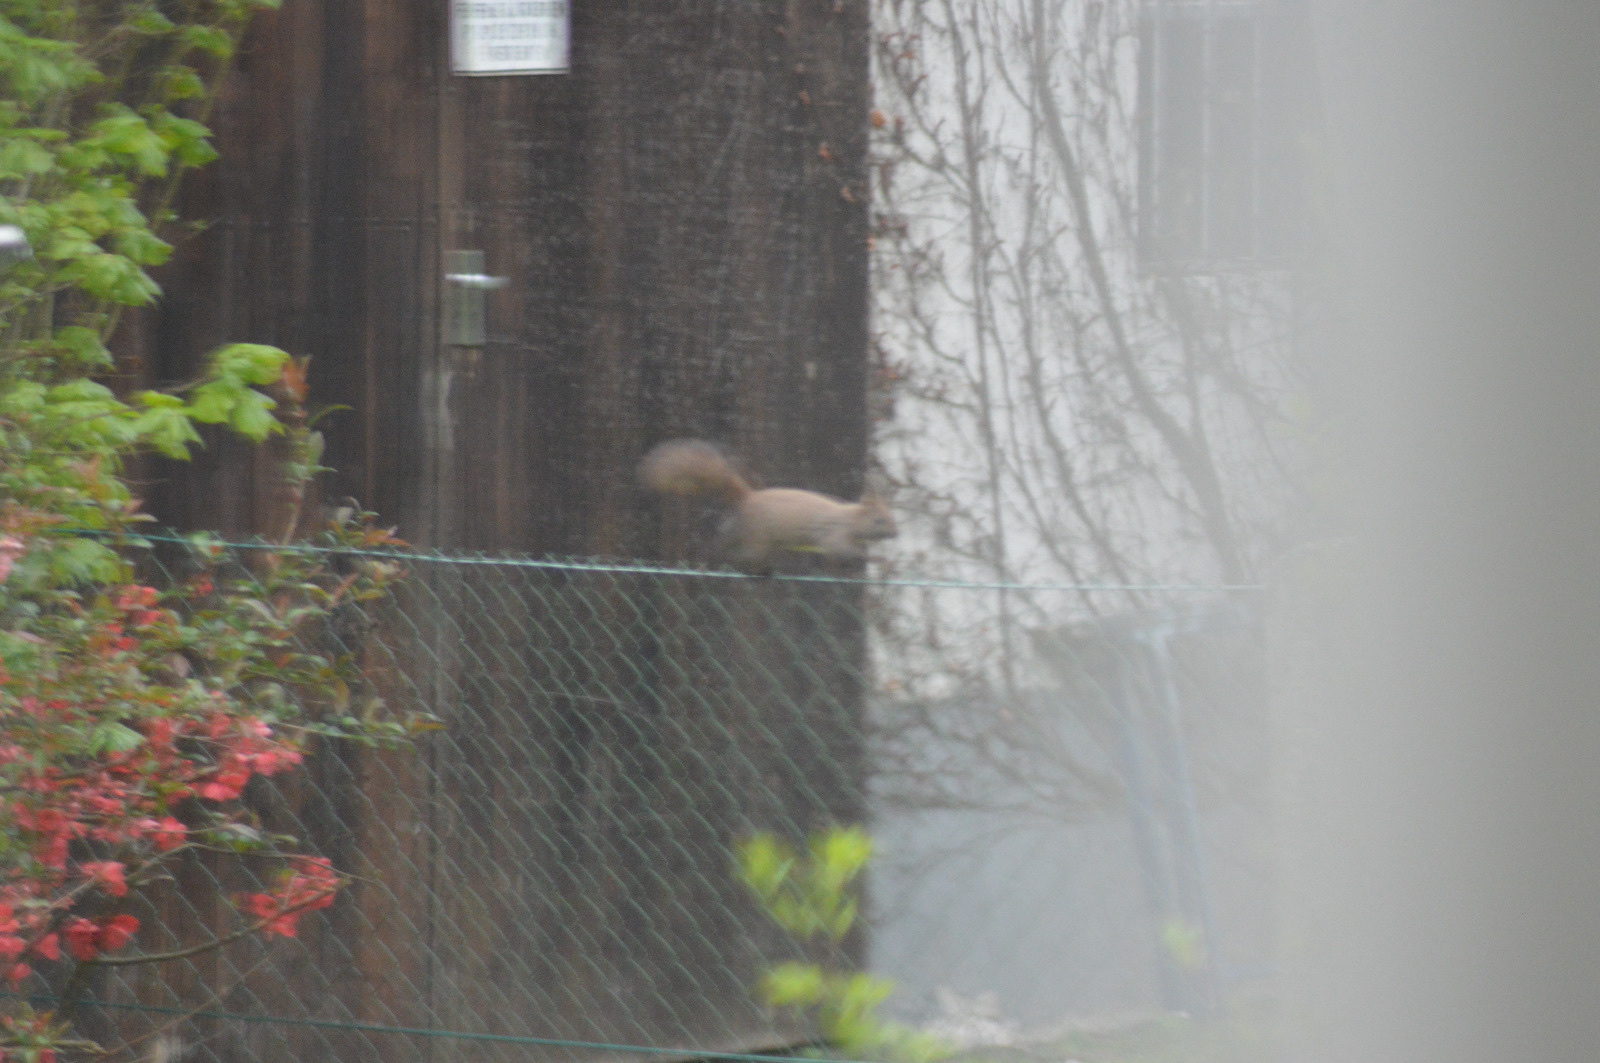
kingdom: Animalia
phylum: Chordata
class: Mammalia
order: Rodentia
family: Sciuridae
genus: Sciurus
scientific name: Sciurus vulgaris
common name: Eurasian red squirrel
